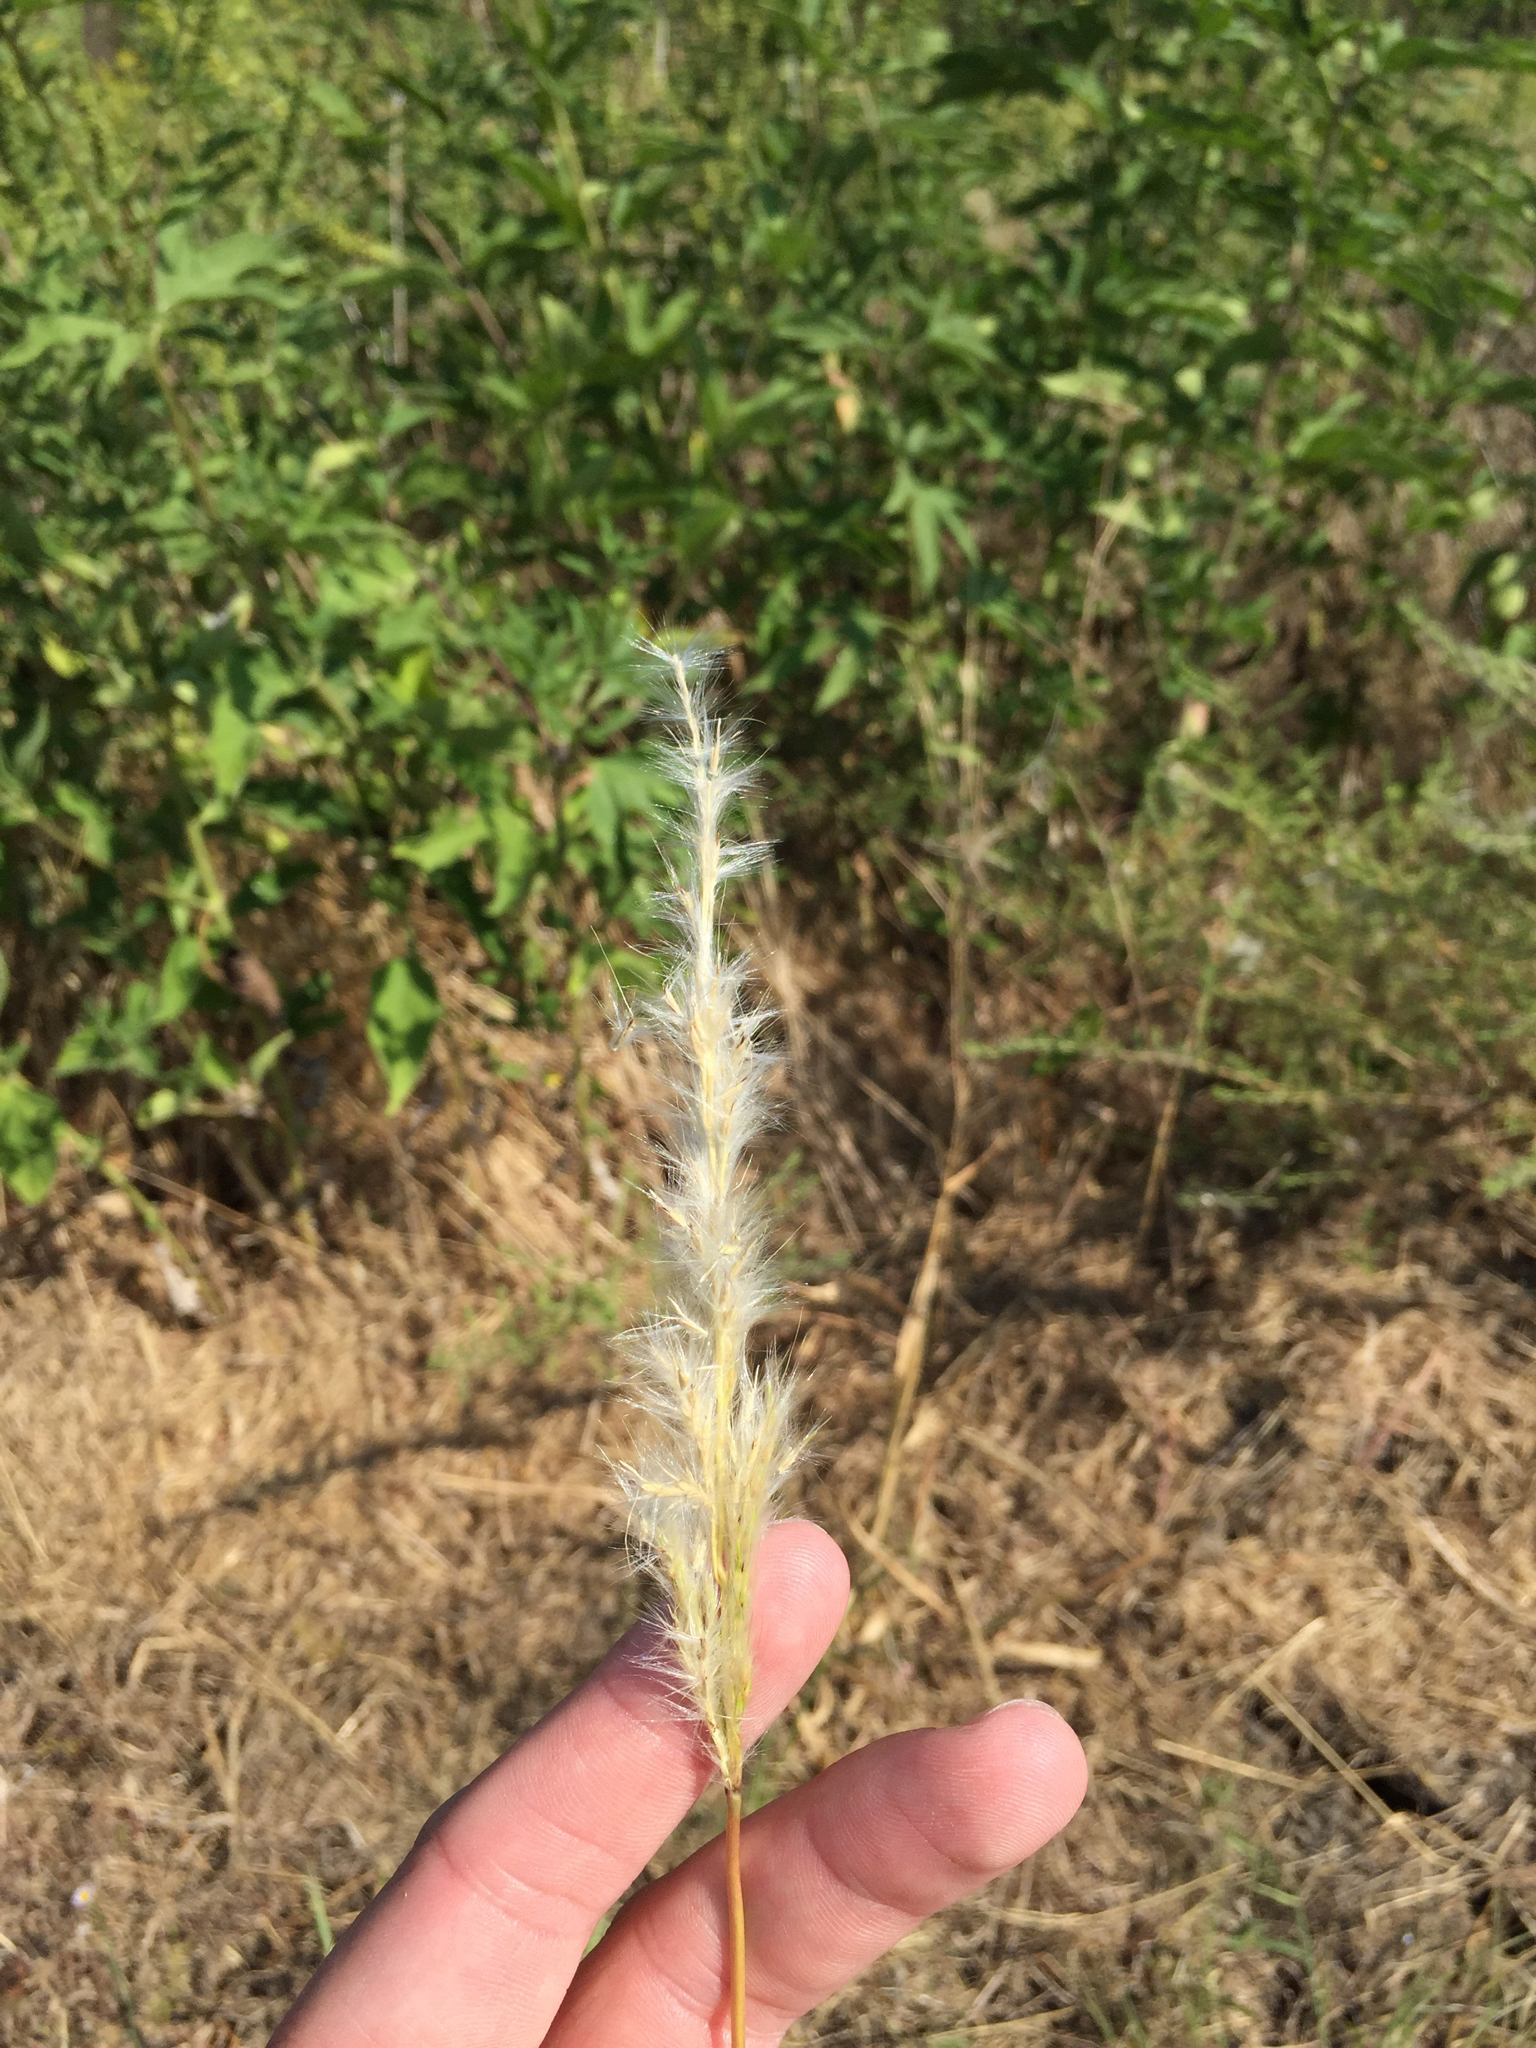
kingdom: Plantae
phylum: Tracheophyta
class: Liliopsida
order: Poales
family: Poaceae
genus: Bothriochloa
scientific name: Bothriochloa torreyana
